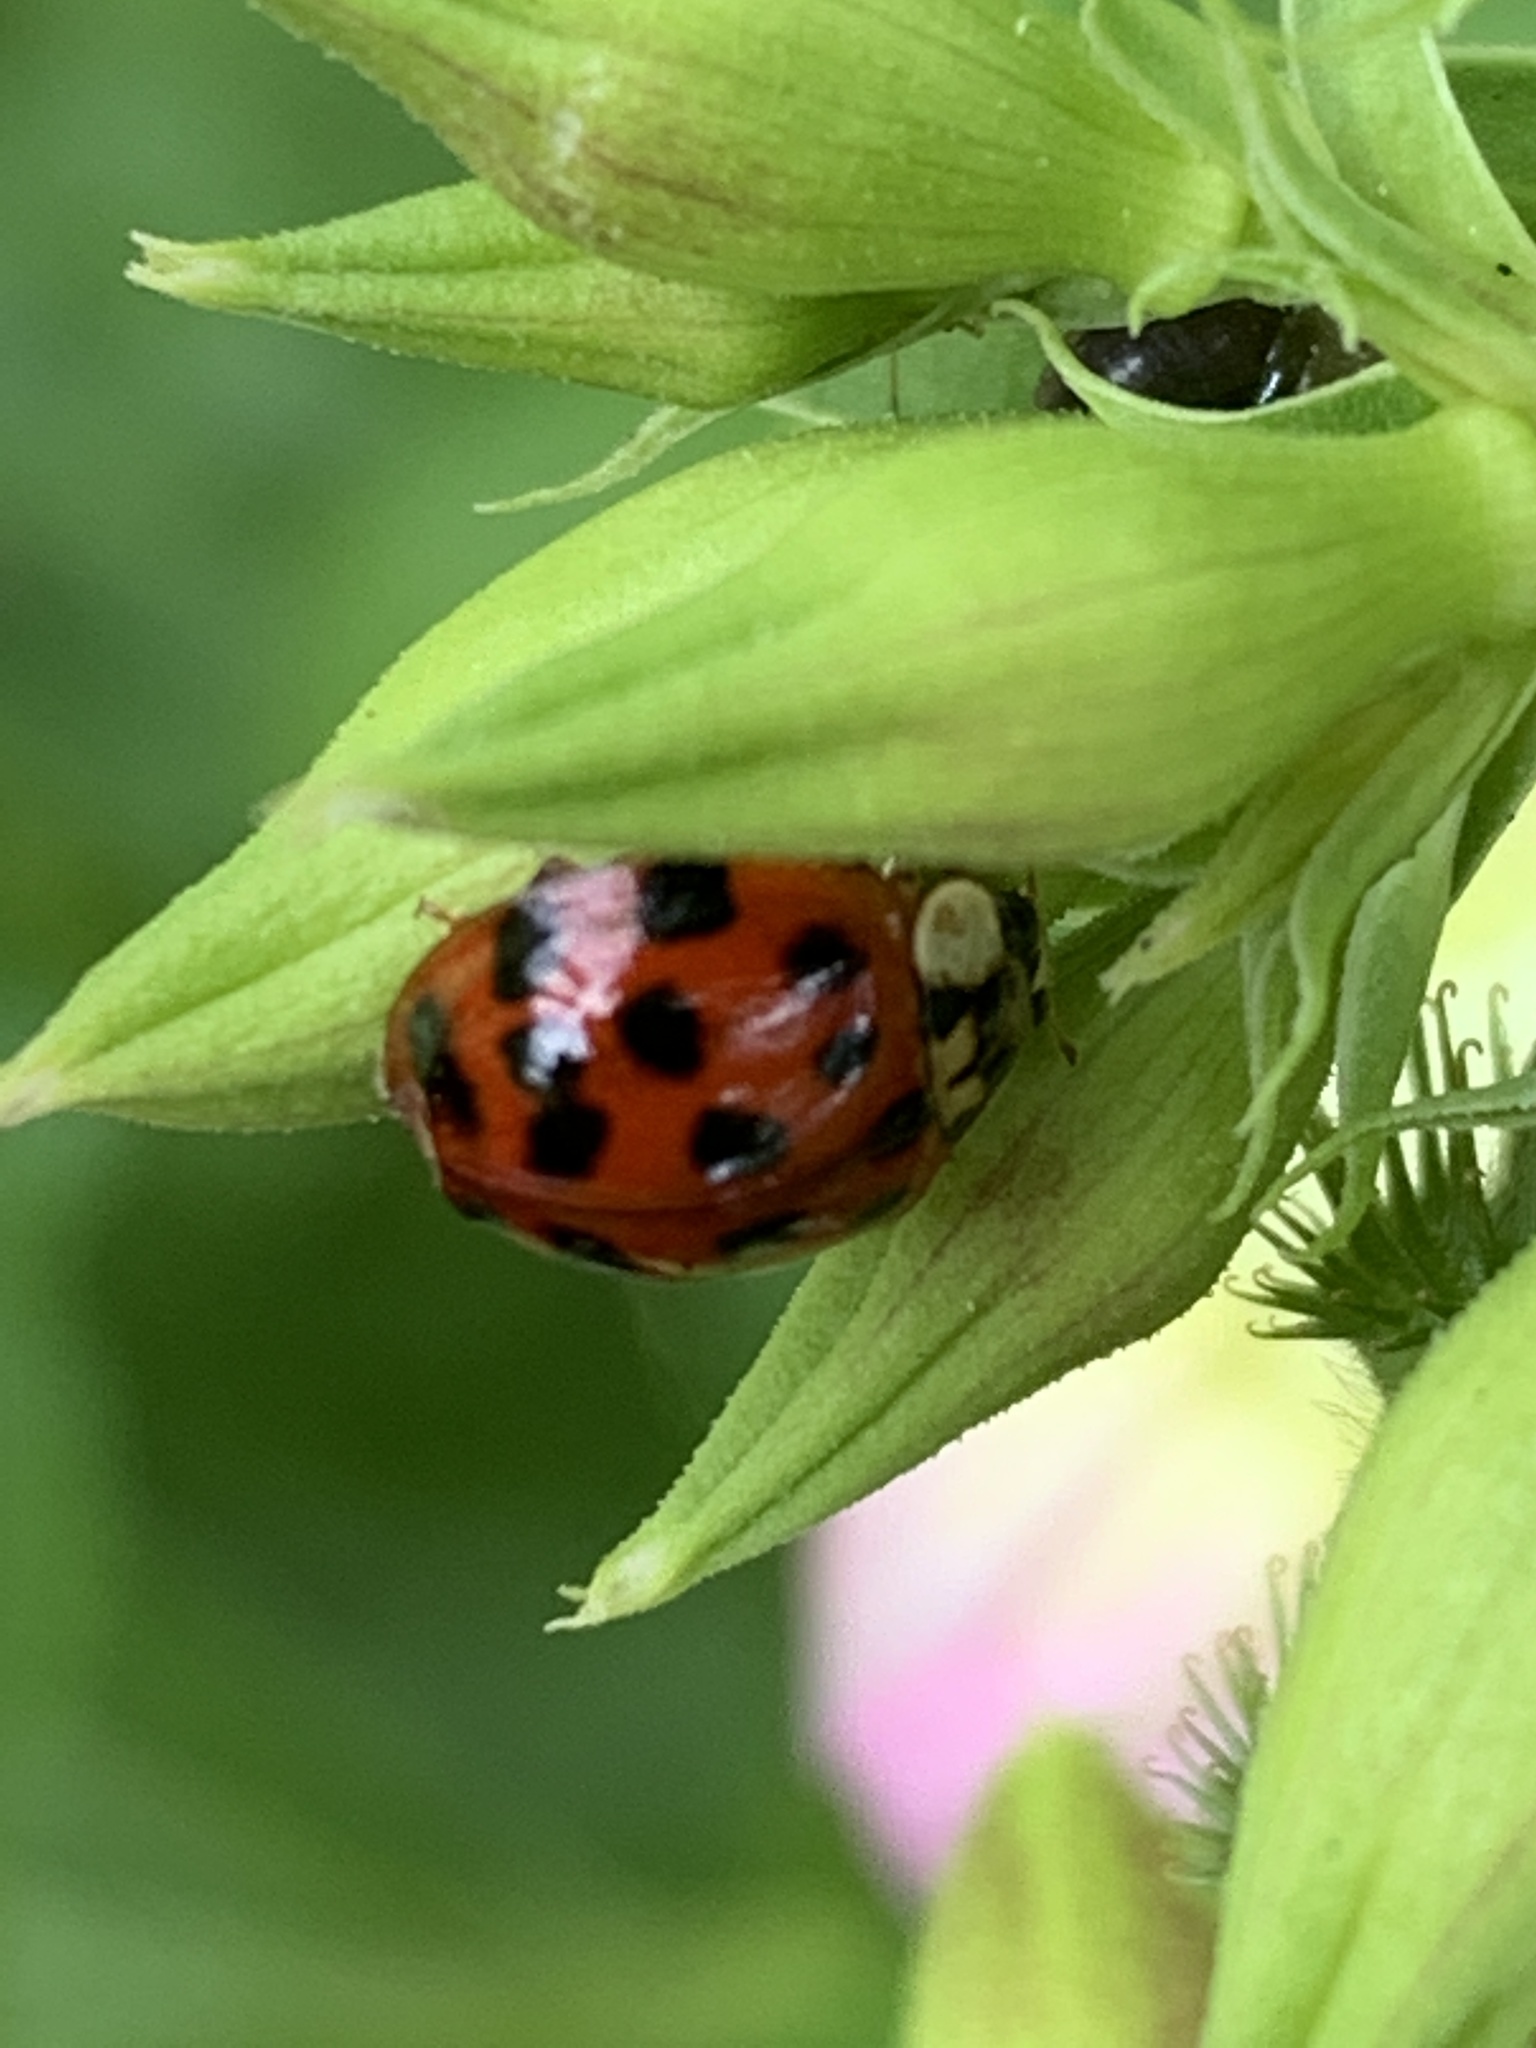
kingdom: Animalia
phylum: Arthropoda
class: Insecta
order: Coleoptera
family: Coccinellidae
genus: Harmonia
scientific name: Harmonia axyridis
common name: Harlequin ladybird
